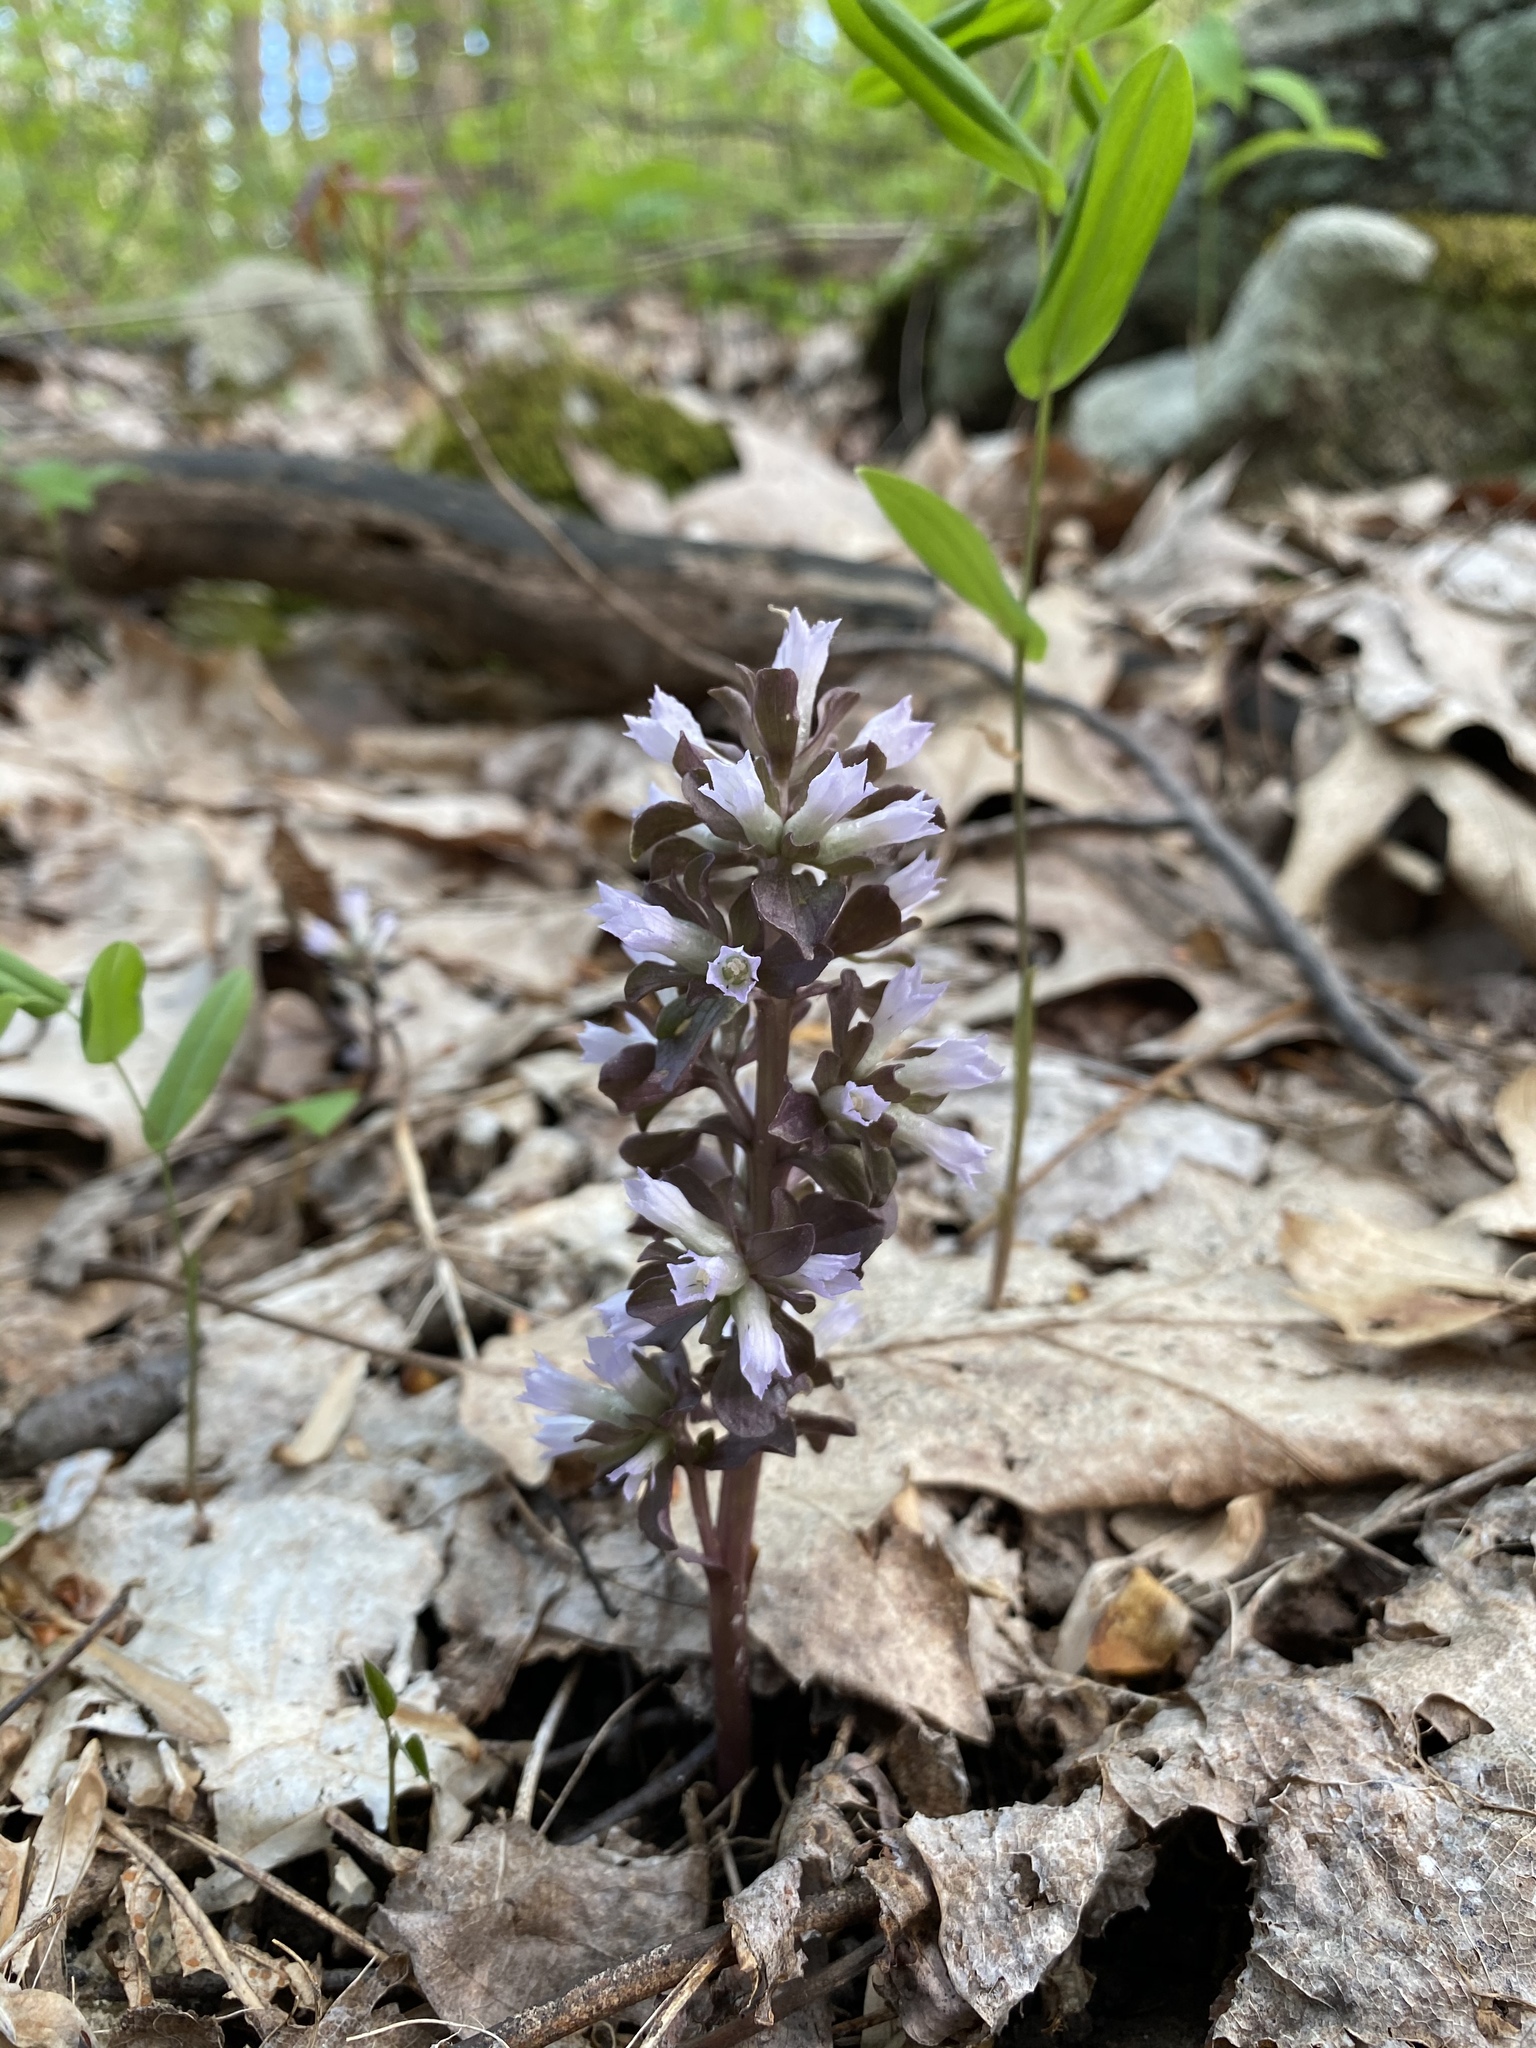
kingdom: Plantae
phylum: Tracheophyta
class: Magnoliopsida
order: Gentianales
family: Gentianaceae
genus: Obolaria
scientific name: Obolaria virginica
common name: Pennywort
